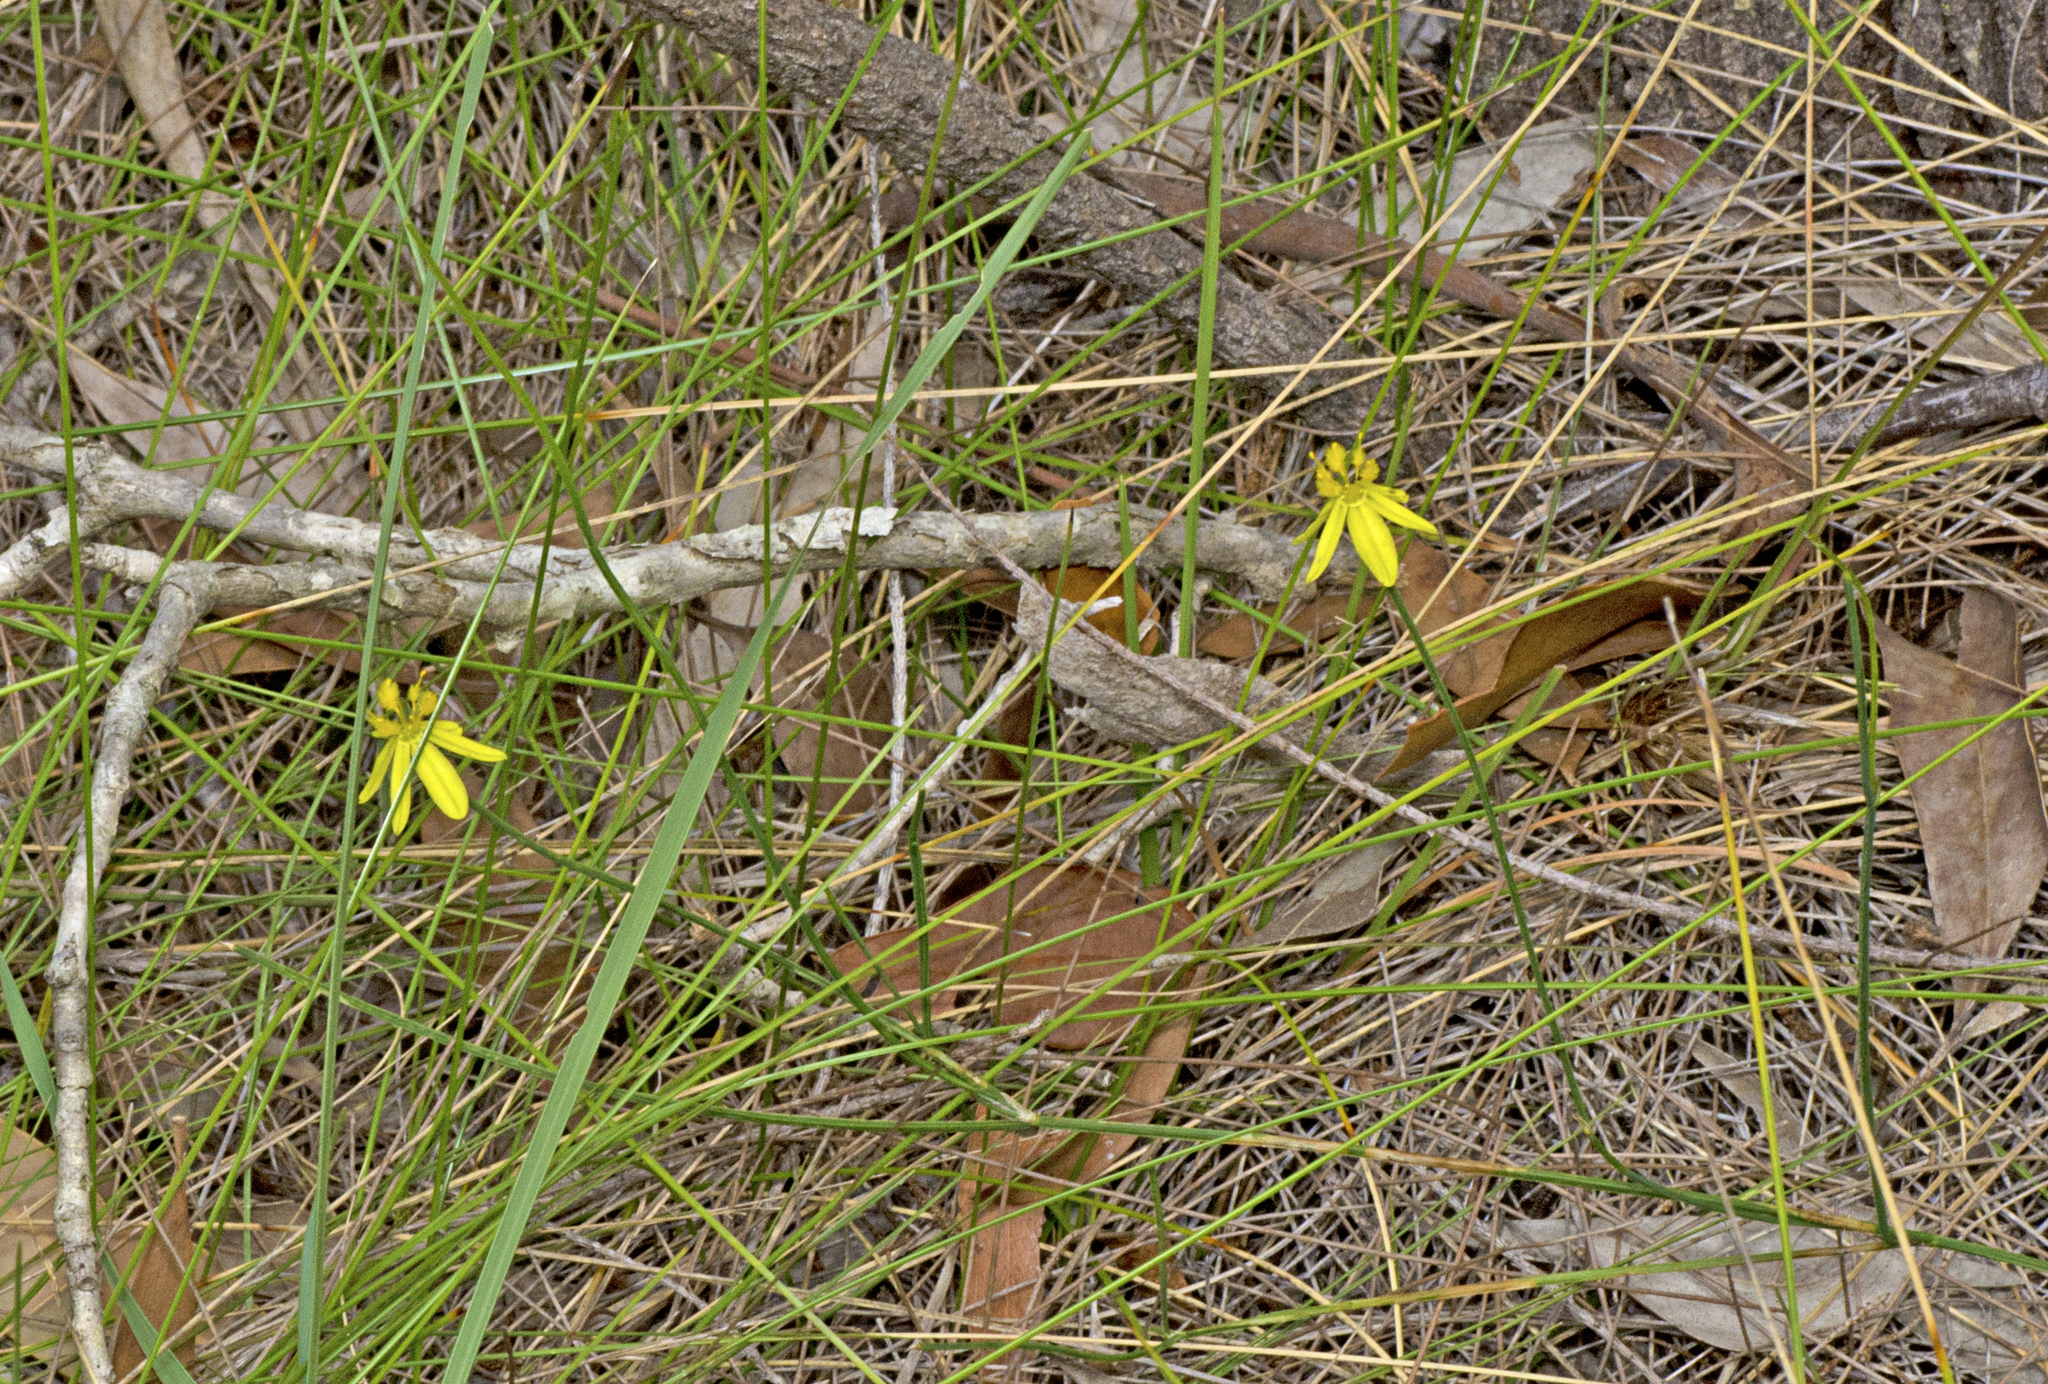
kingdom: Plantae
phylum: Tracheophyta
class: Liliopsida
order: Asparagales
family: Asphodelaceae
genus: Tricoryne
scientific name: Tricoryne elatior
